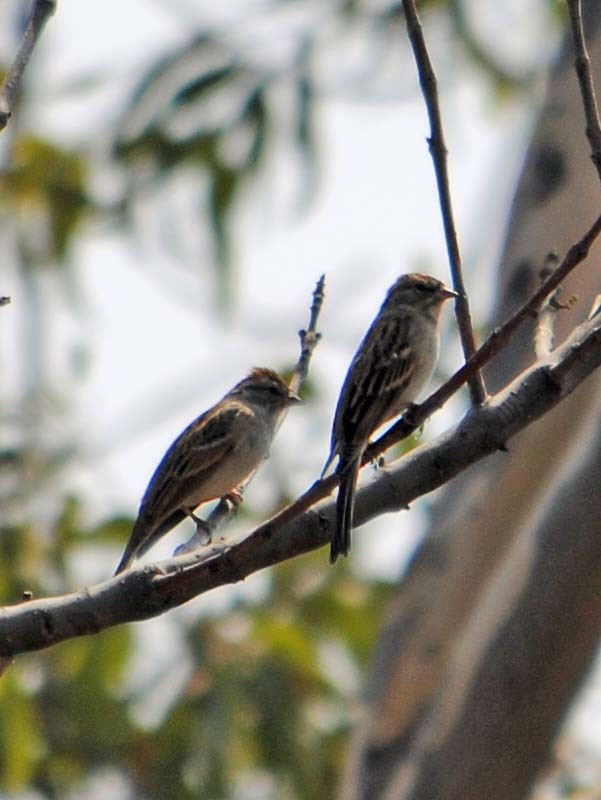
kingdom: Animalia
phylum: Chordata
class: Aves
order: Passeriformes
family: Passerellidae
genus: Spizella
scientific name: Spizella passerina
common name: Chipping sparrow
